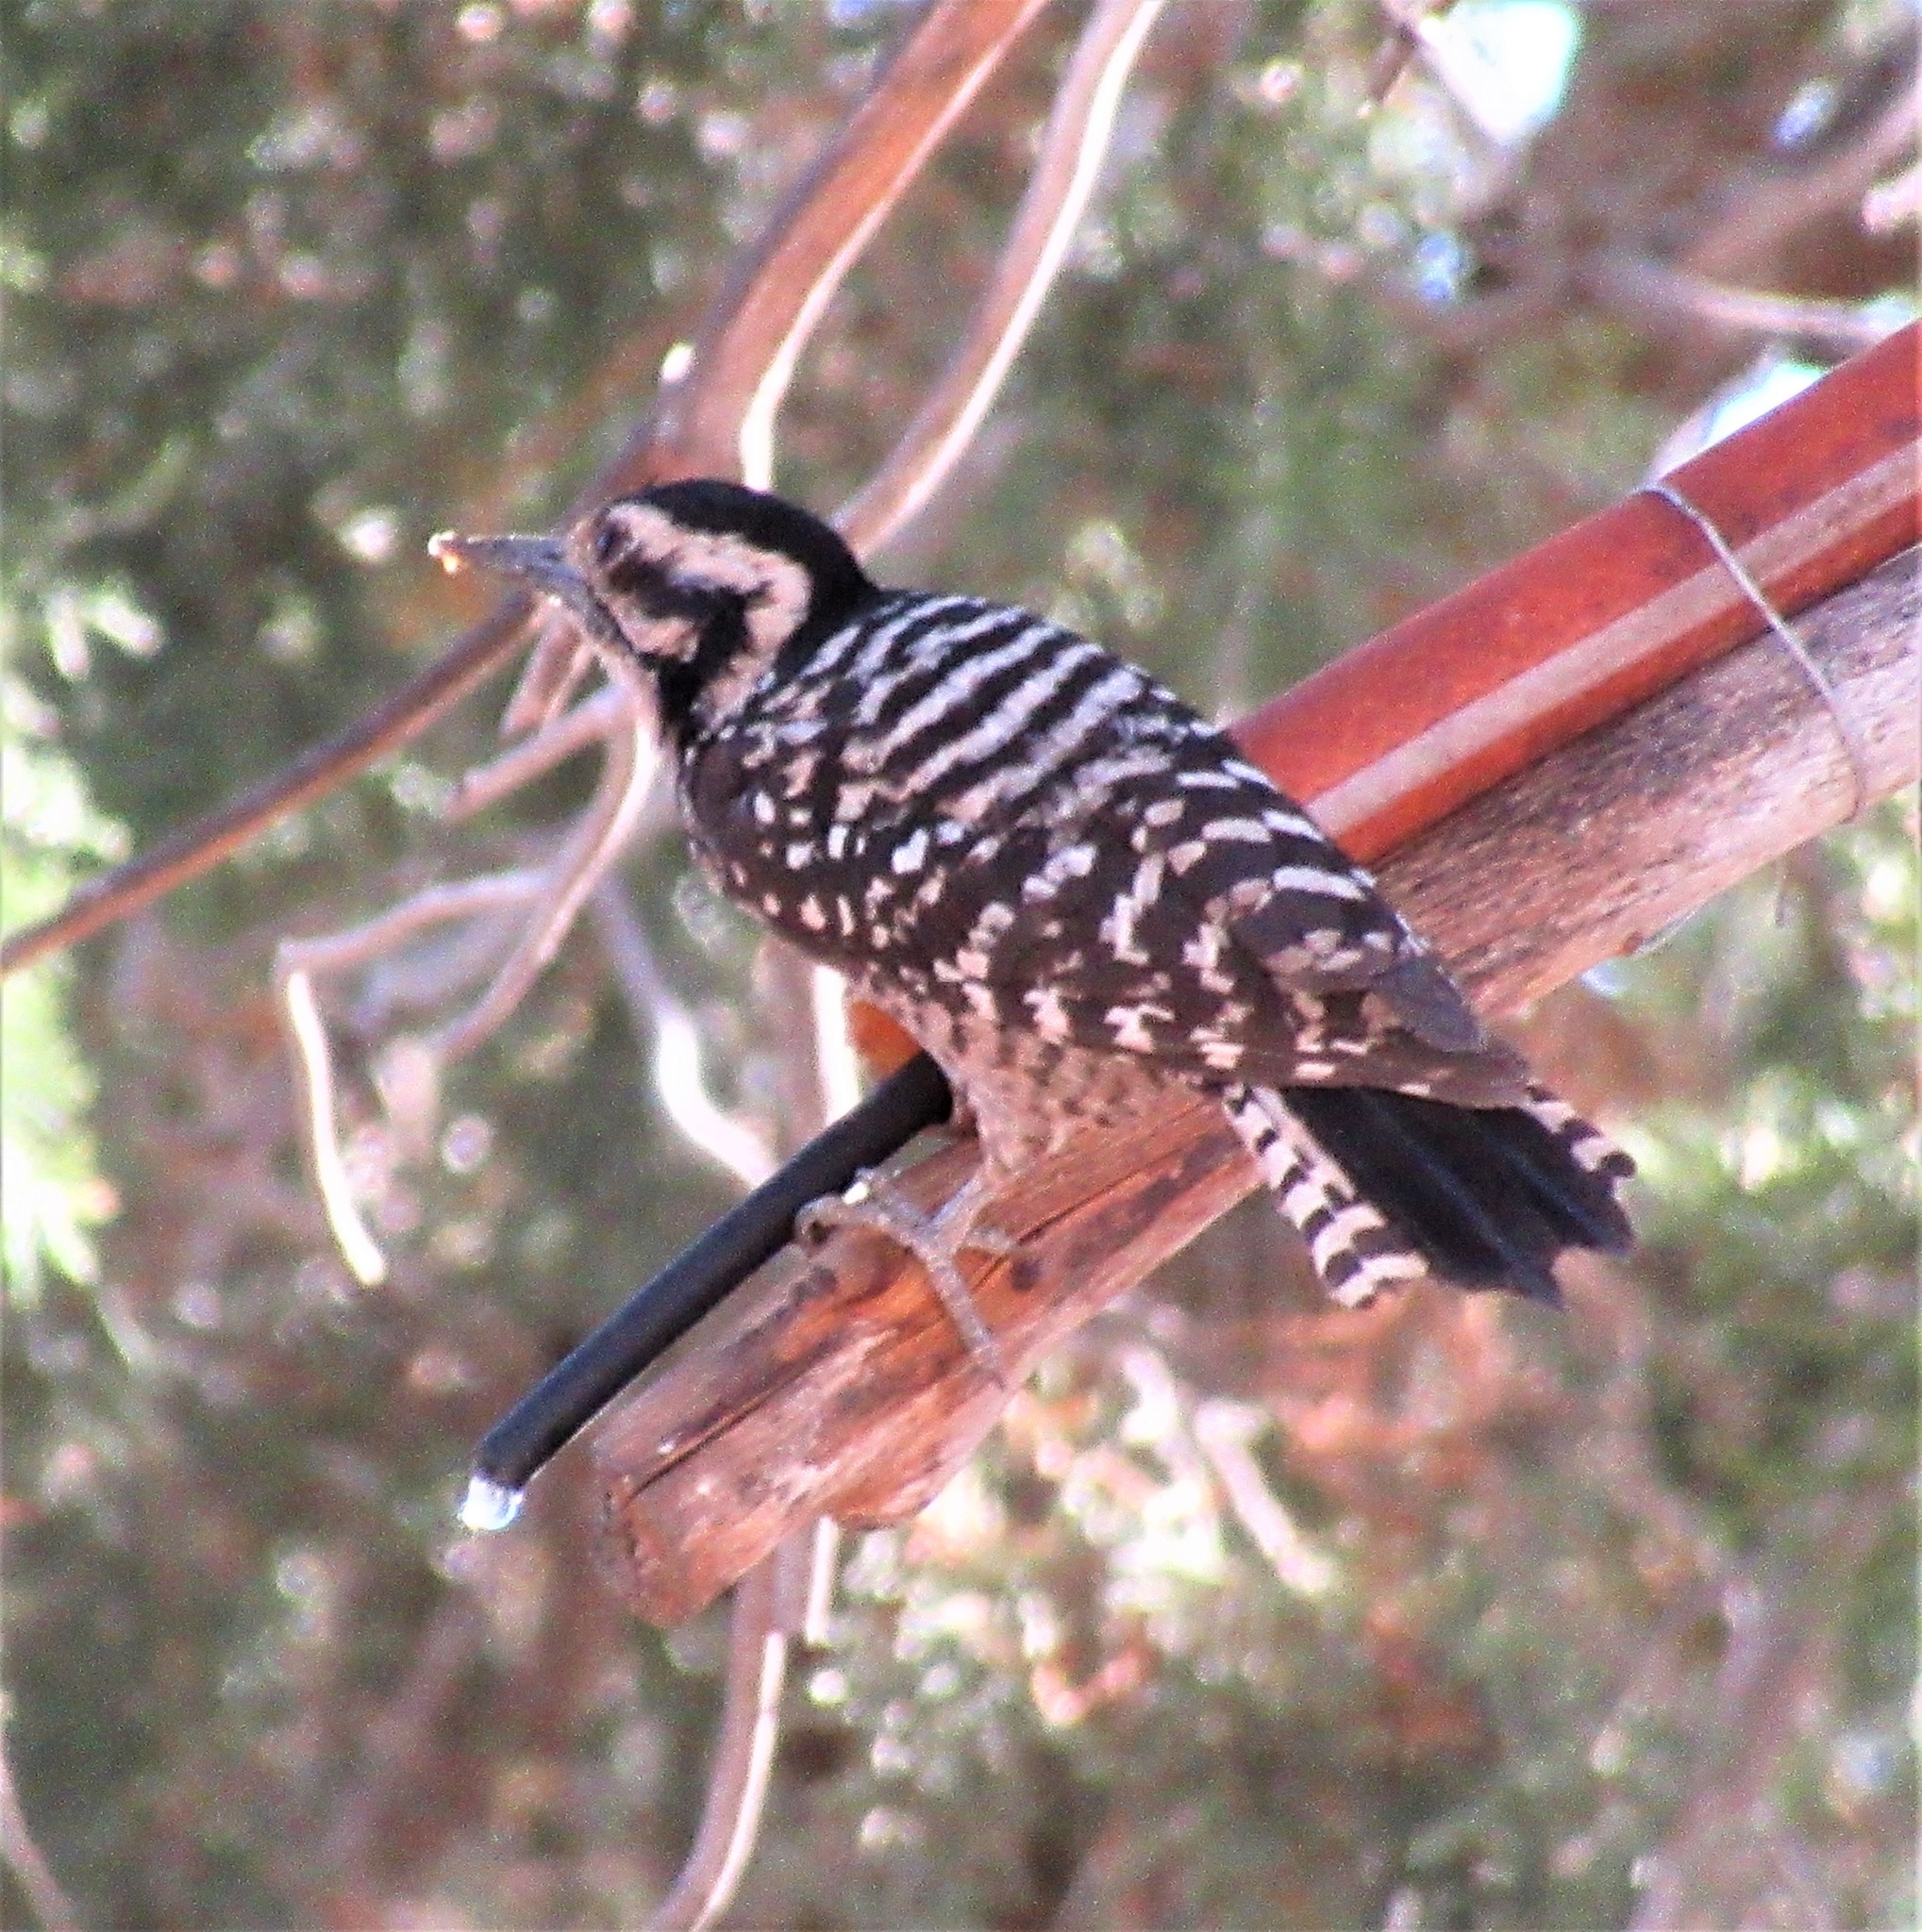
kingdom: Animalia
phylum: Chordata
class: Aves
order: Piciformes
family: Picidae
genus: Dryobates
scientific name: Dryobates scalaris
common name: Ladder-backed woodpecker
